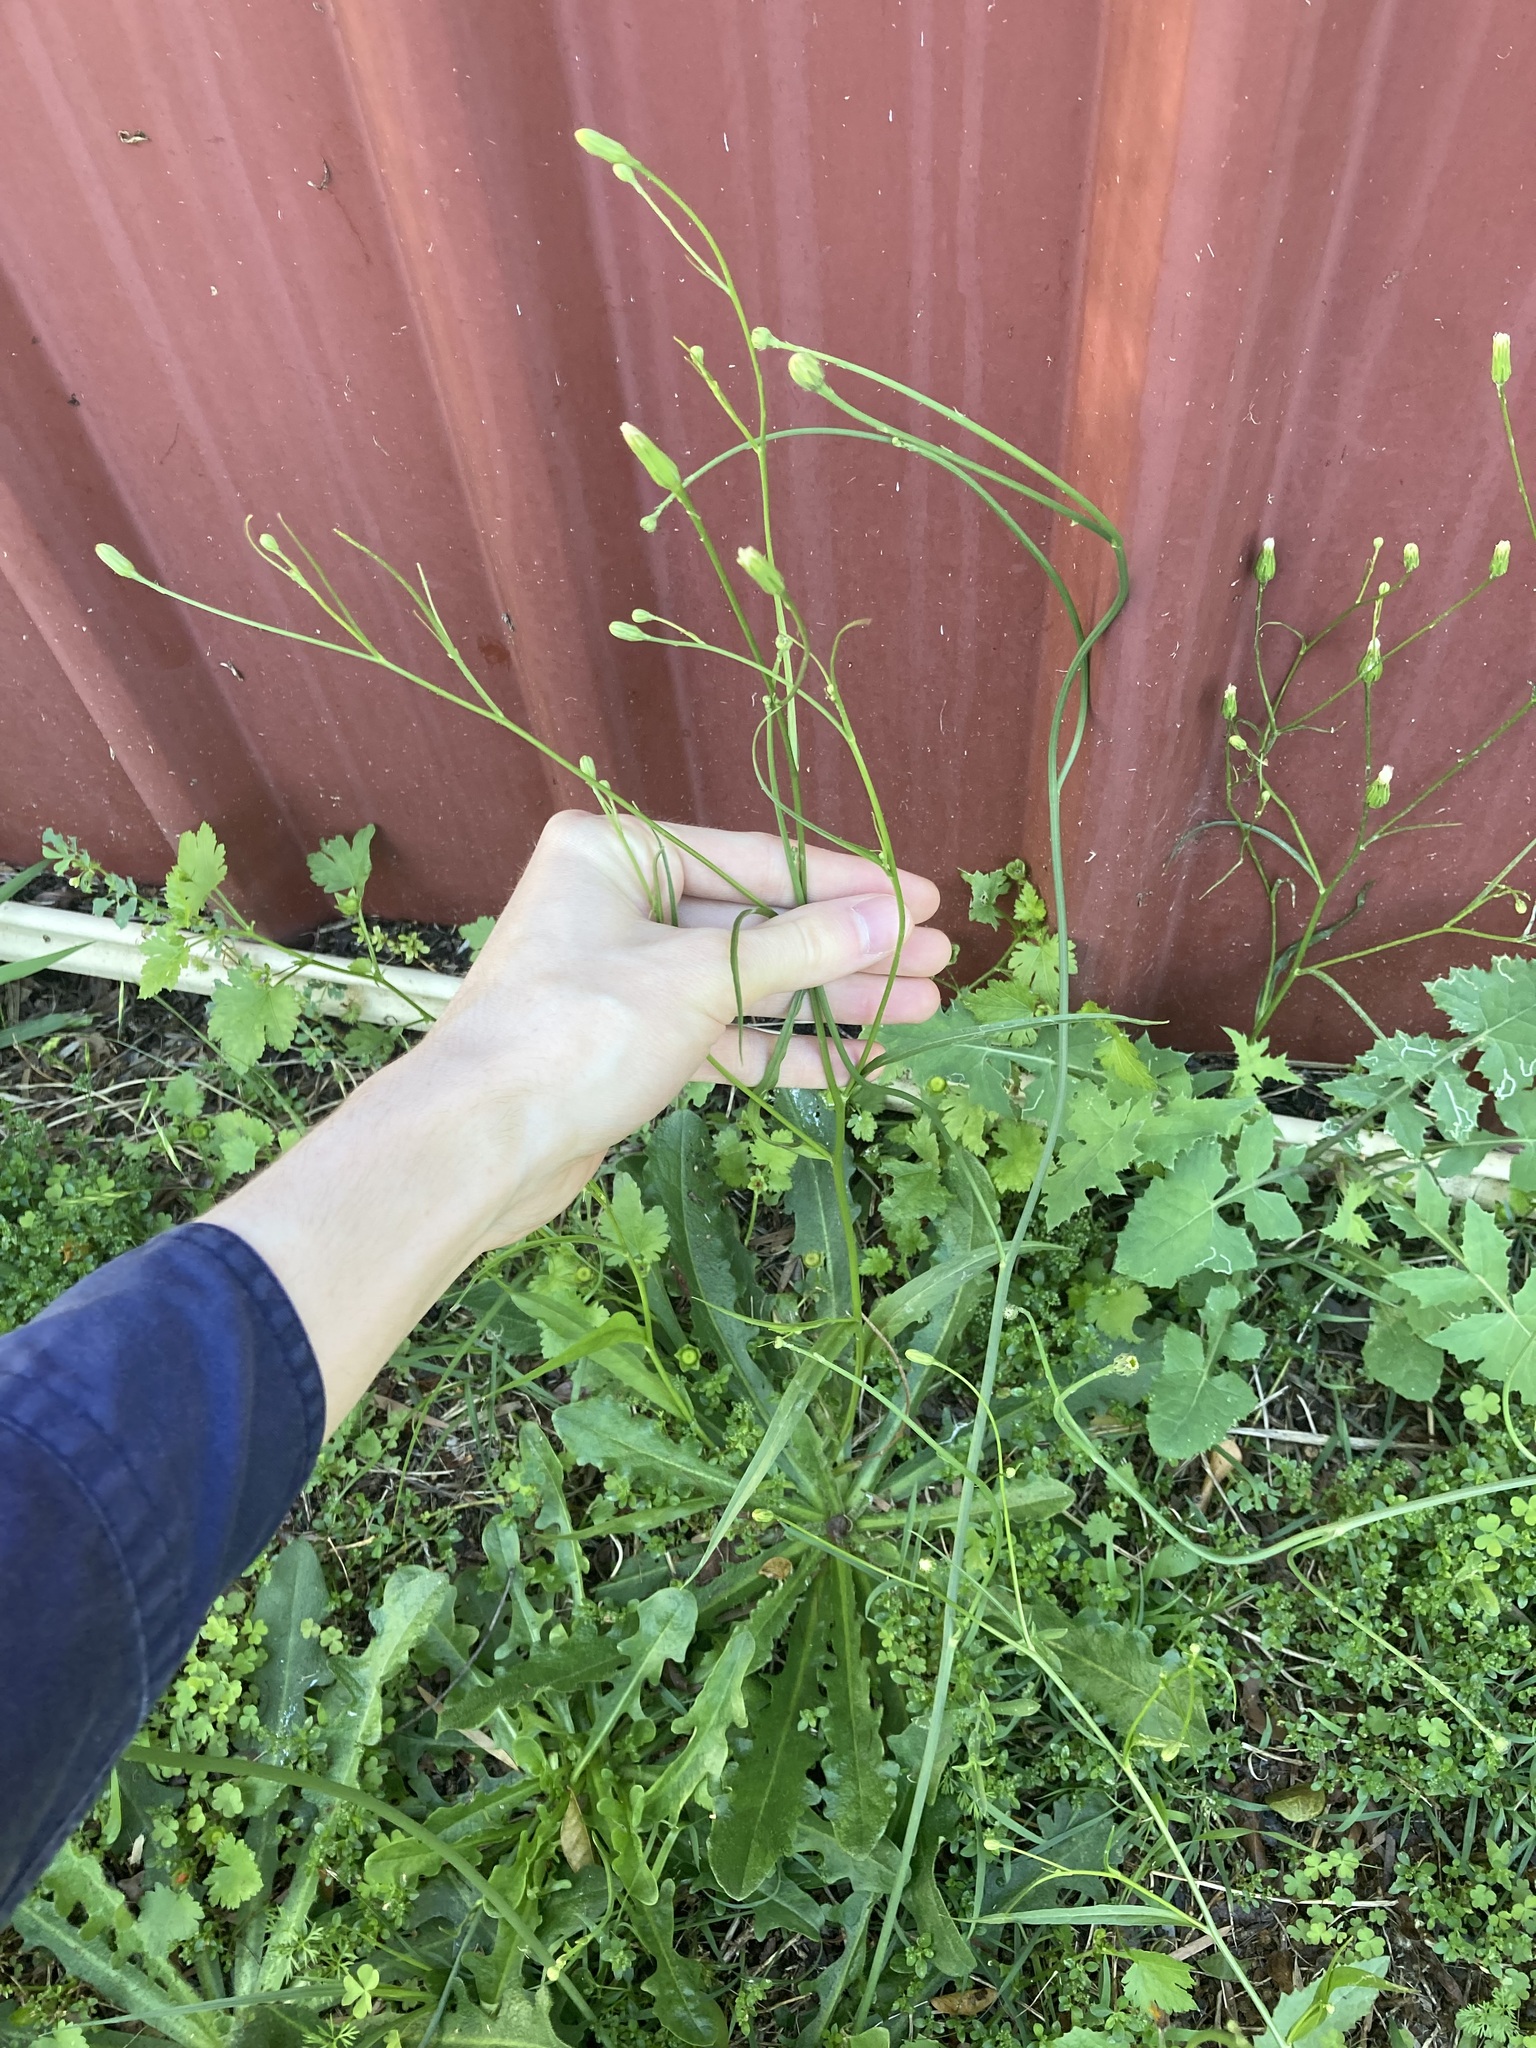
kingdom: Plantae
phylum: Tracheophyta
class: Magnoliopsida
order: Asterales
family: Asteraceae
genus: Hypochaeris
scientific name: Hypochaeris albiflora
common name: White flatweed
